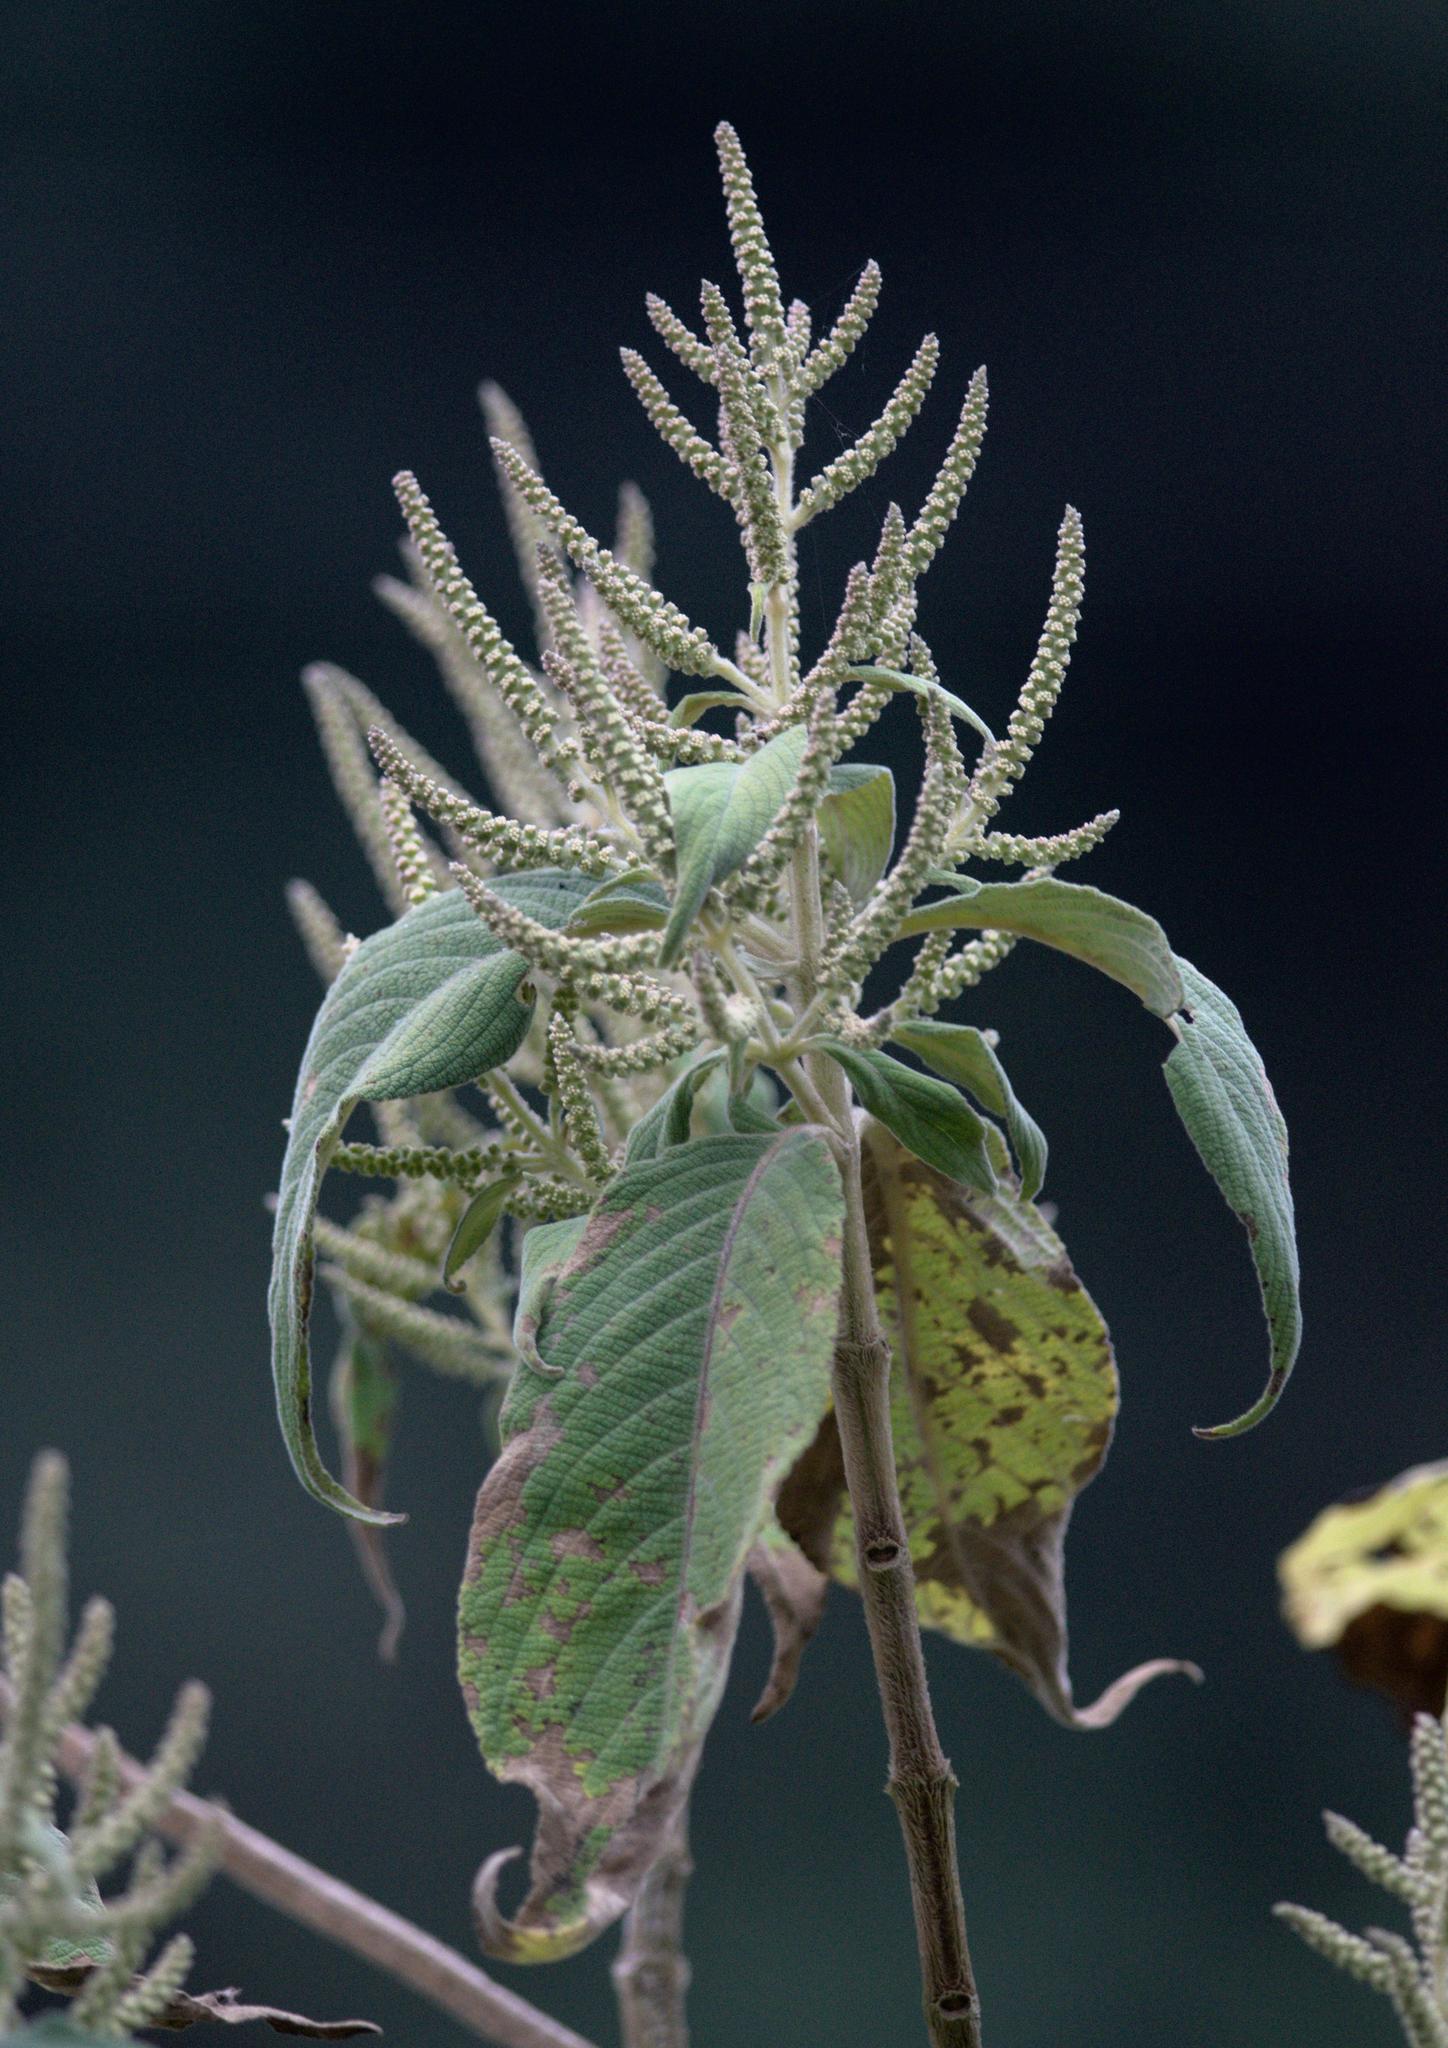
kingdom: Plantae
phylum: Tracheophyta
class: Magnoliopsida
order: Lamiales
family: Lamiaceae
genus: Colebrookea
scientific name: Colebrookea oppositifolia
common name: Indian squirrel tail
